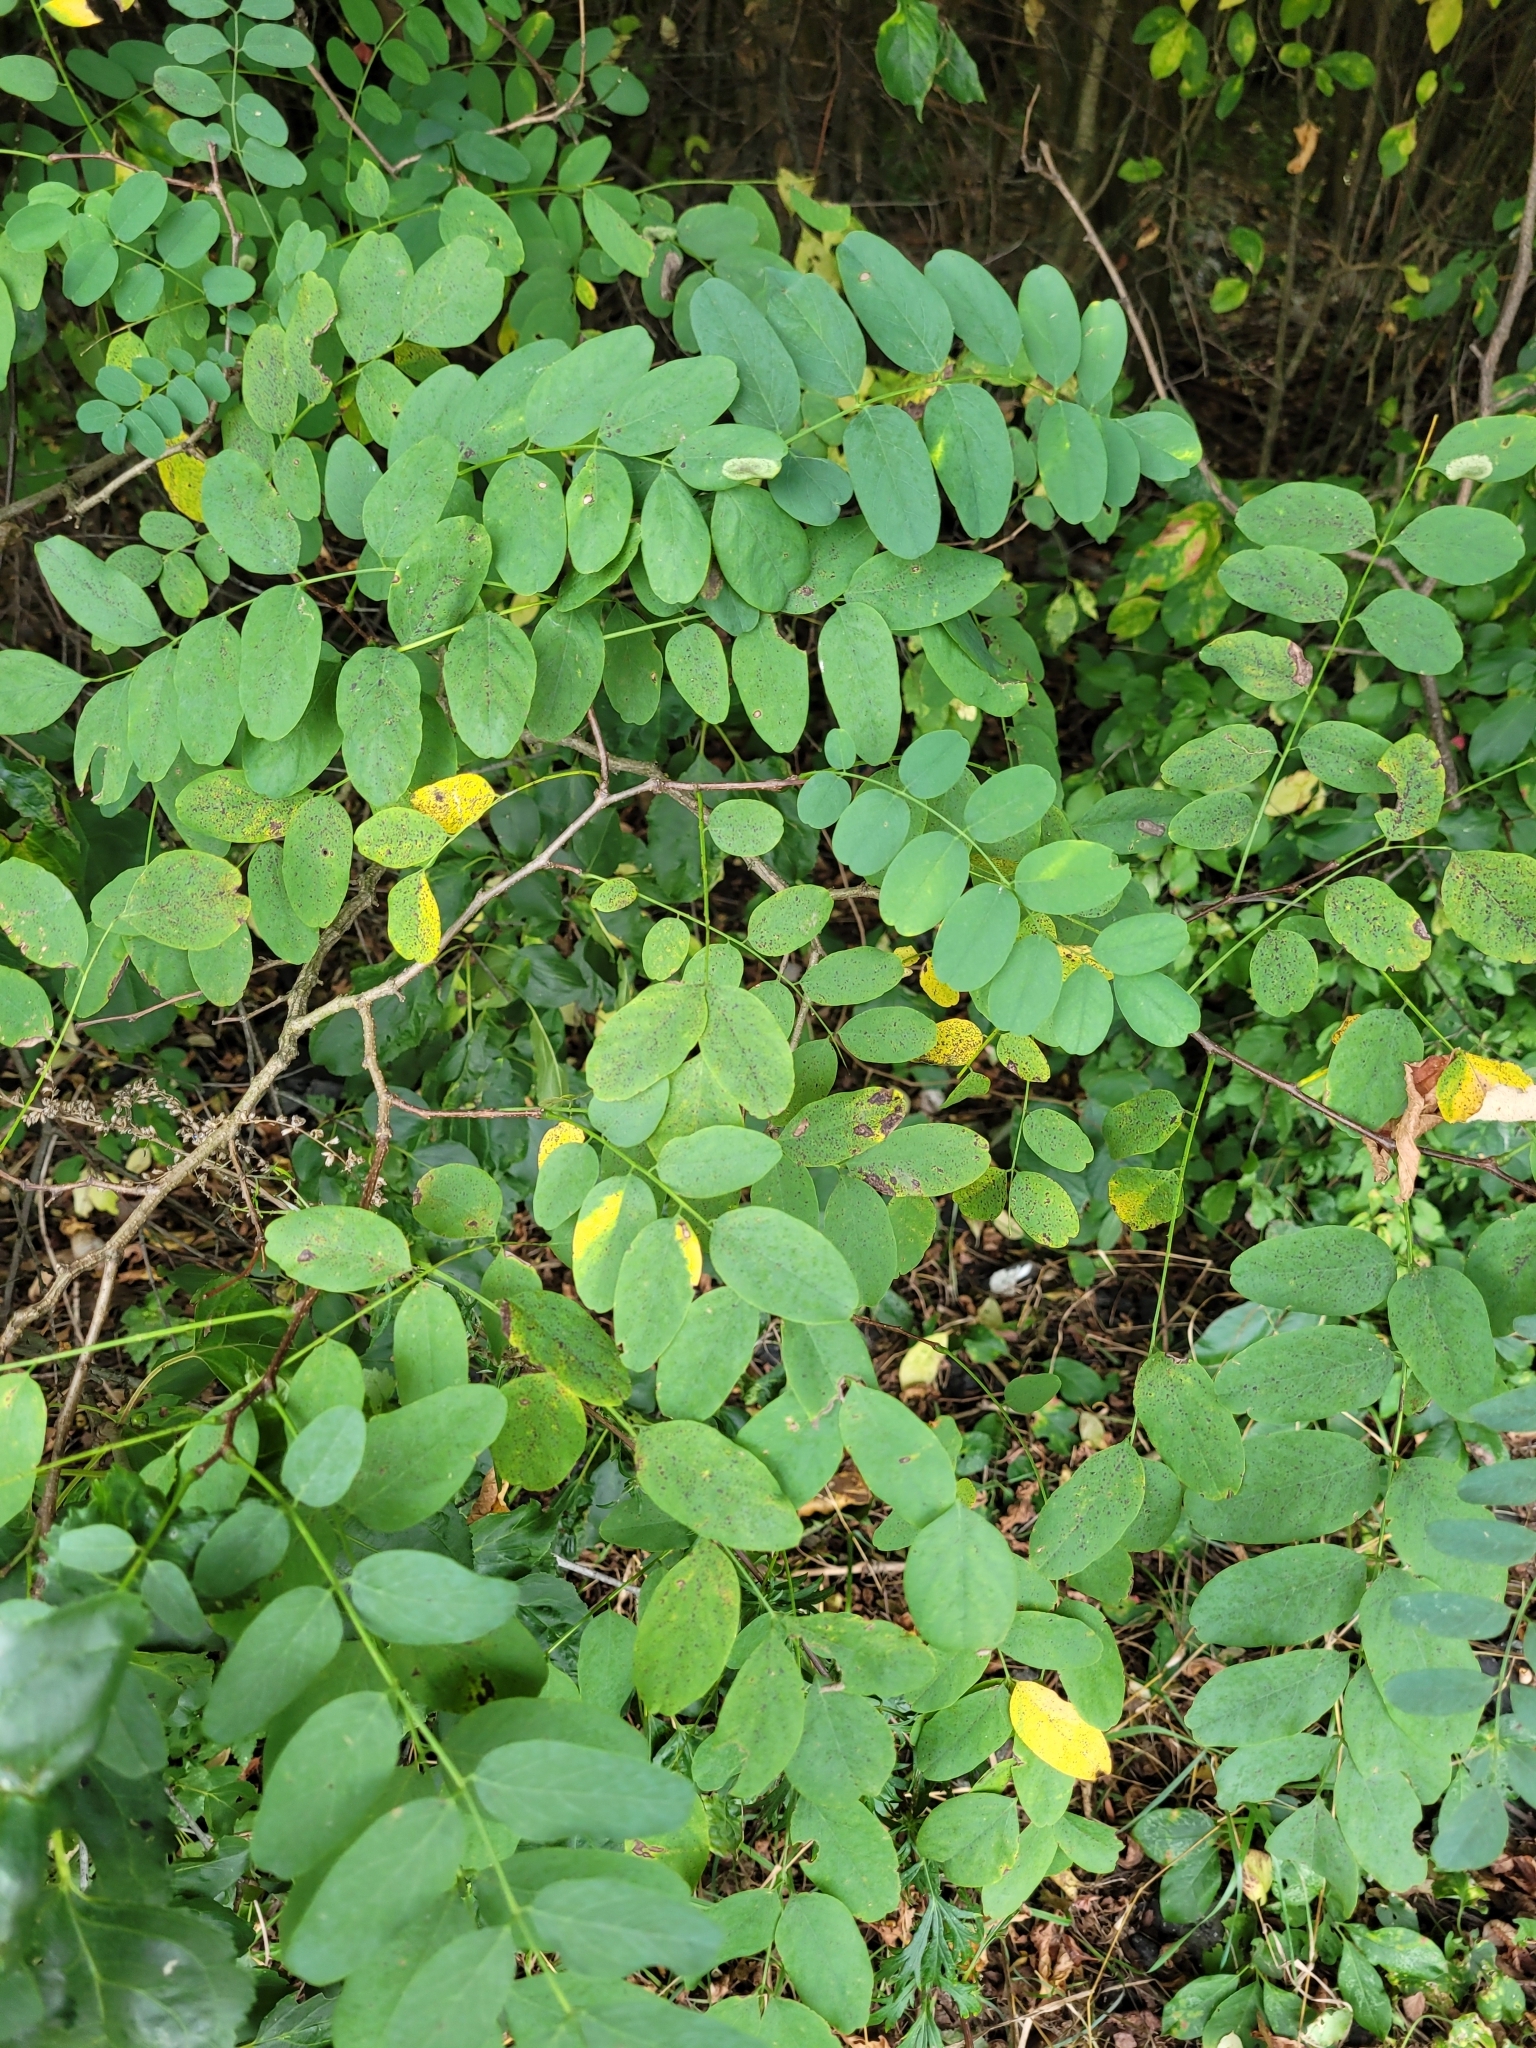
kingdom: Plantae
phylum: Tracheophyta
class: Magnoliopsida
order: Fabales
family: Fabaceae
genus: Robinia
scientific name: Robinia pseudoacacia
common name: Black locust
